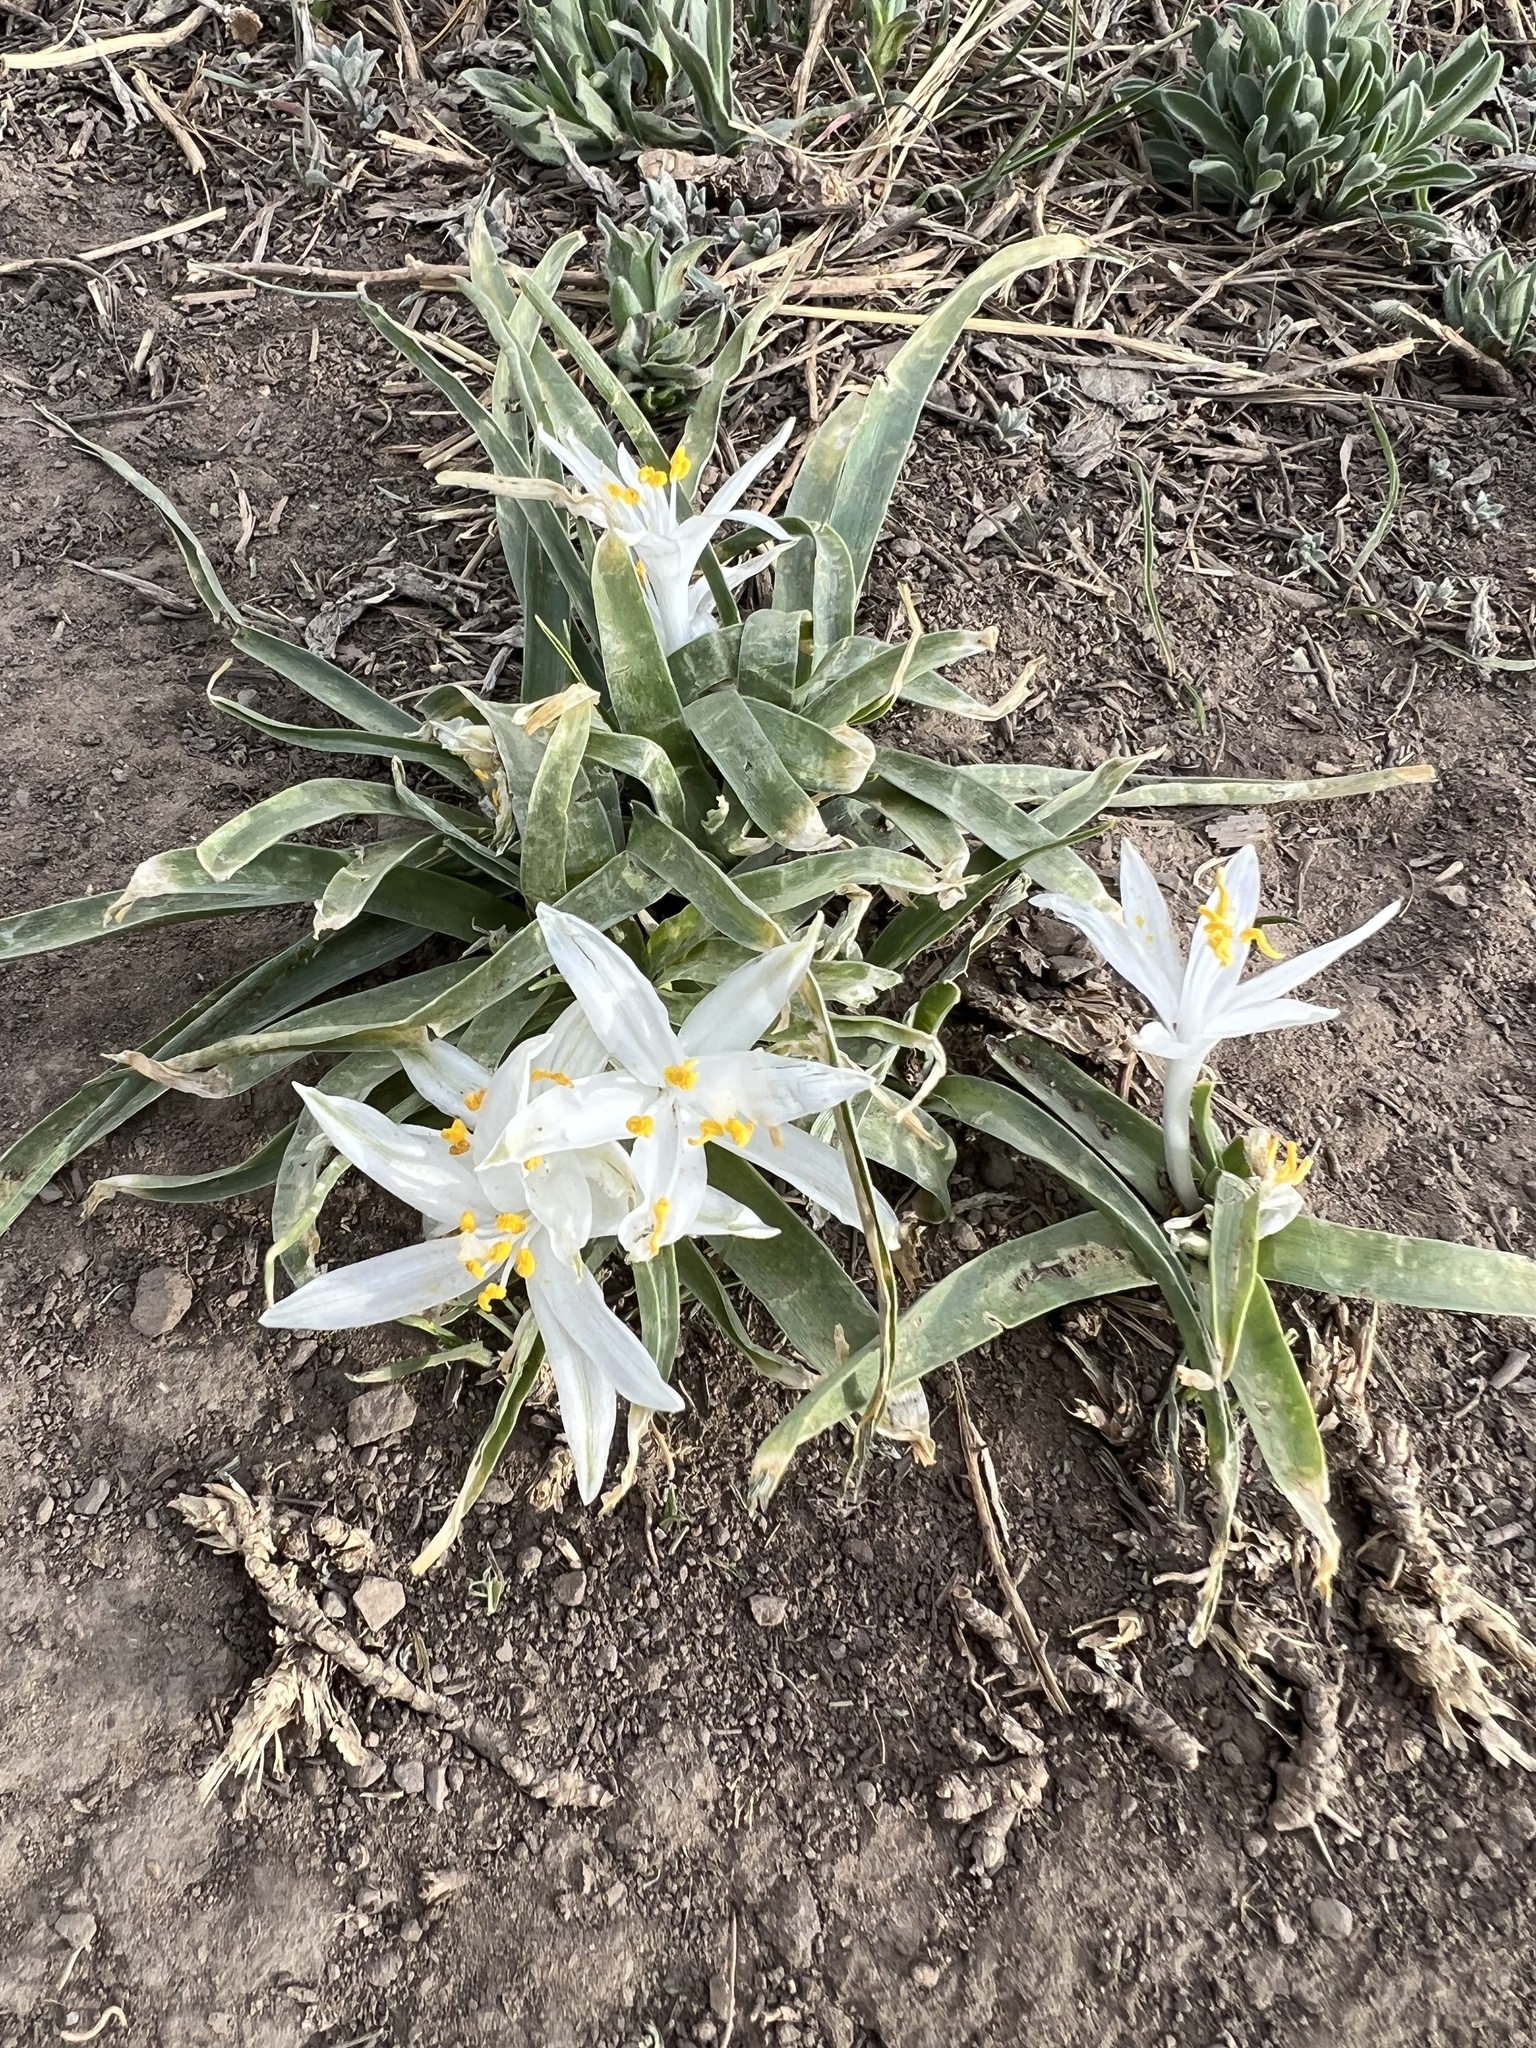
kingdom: Plantae
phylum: Tracheophyta
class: Liliopsida
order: Asparagales
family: Asparagaceae
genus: Leucocrinum
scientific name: Leucocrinum montanum
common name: Mountain-lily
